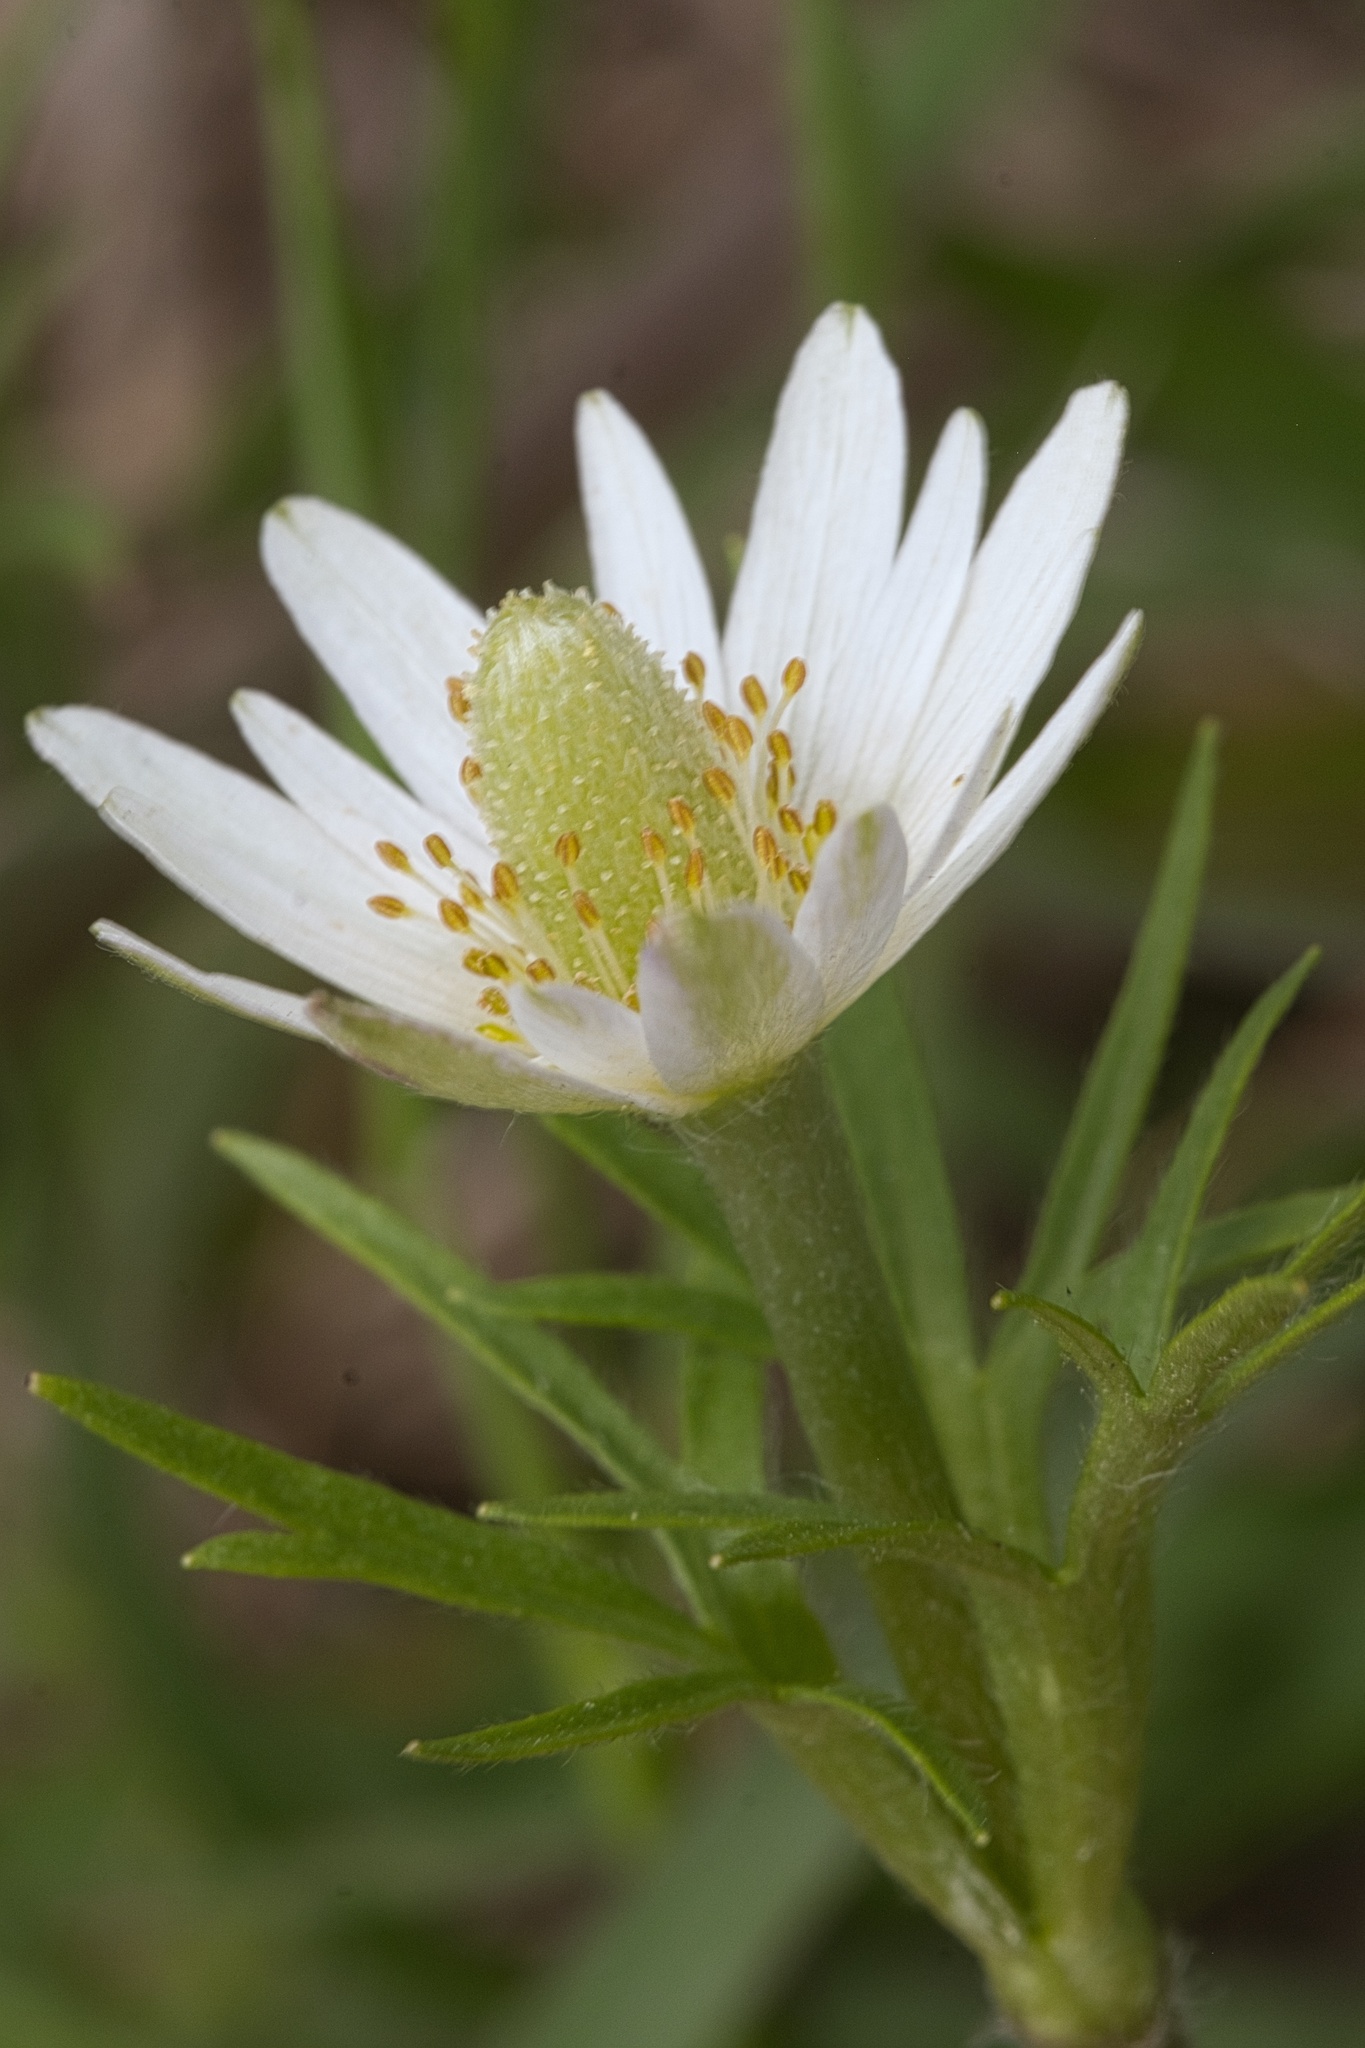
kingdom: Plantae
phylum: Tracheophyta
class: Magnoliopsida
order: Ranunculales
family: Ranunculaceae
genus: Anemone
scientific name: Anemone berlandieri
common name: Ten-petal anemone
